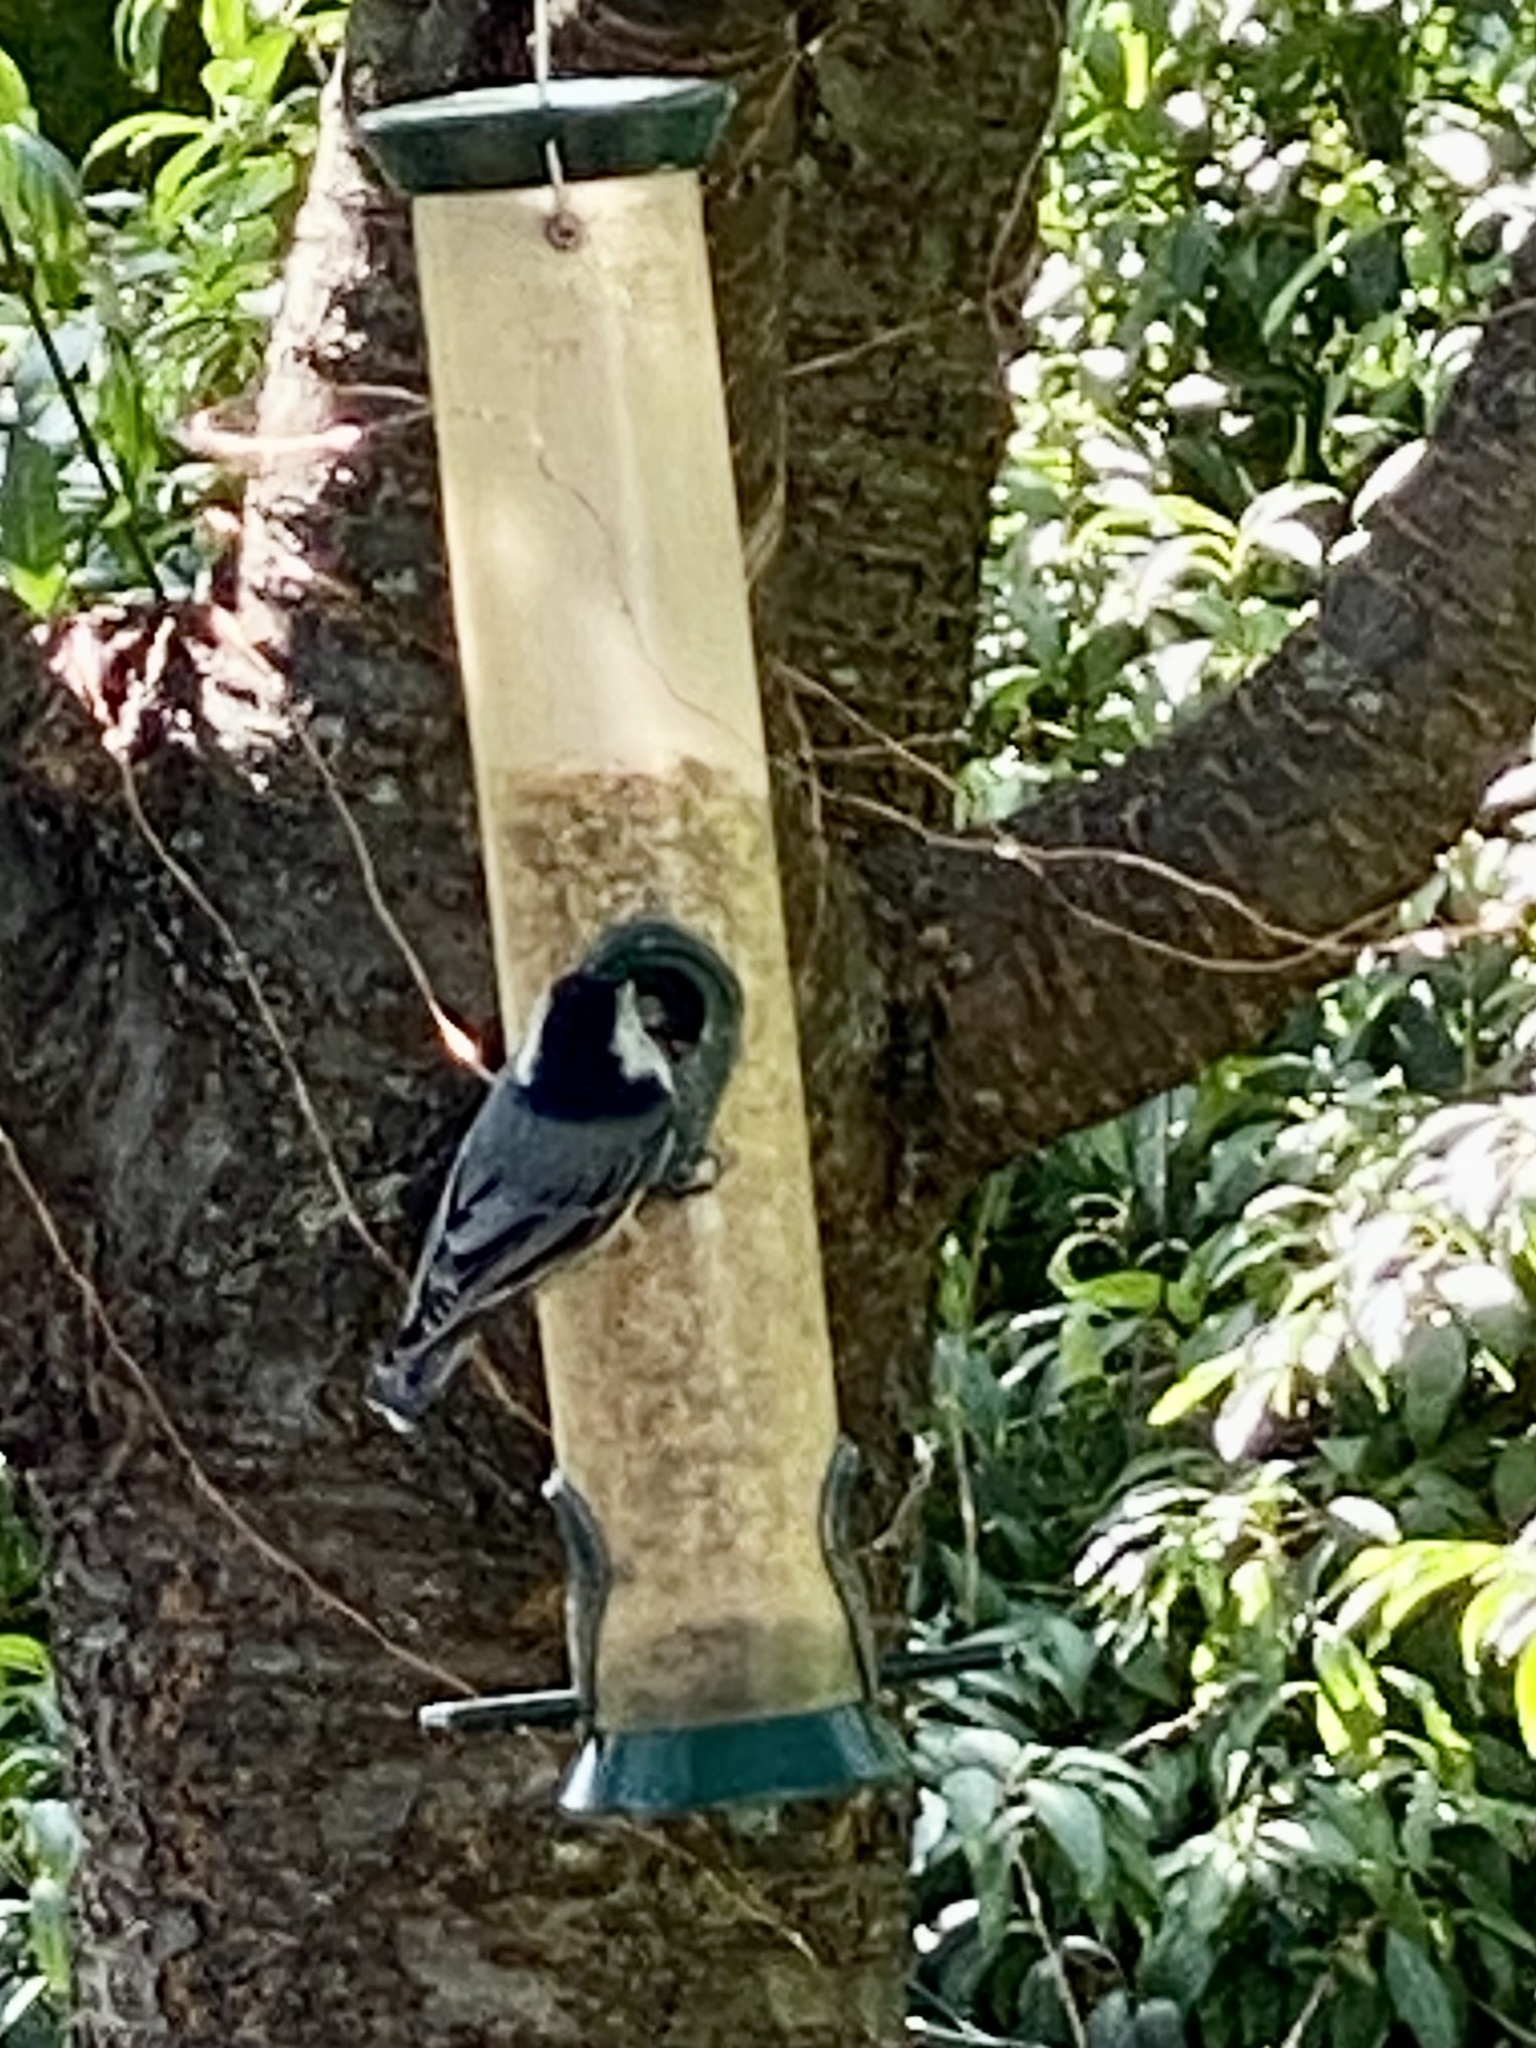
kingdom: Animalia
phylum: Chordata
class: Aves
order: Passeriformes
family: Sittidae
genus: Sitta
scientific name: Sitta carolinensis
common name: White-breasted nuthatch
